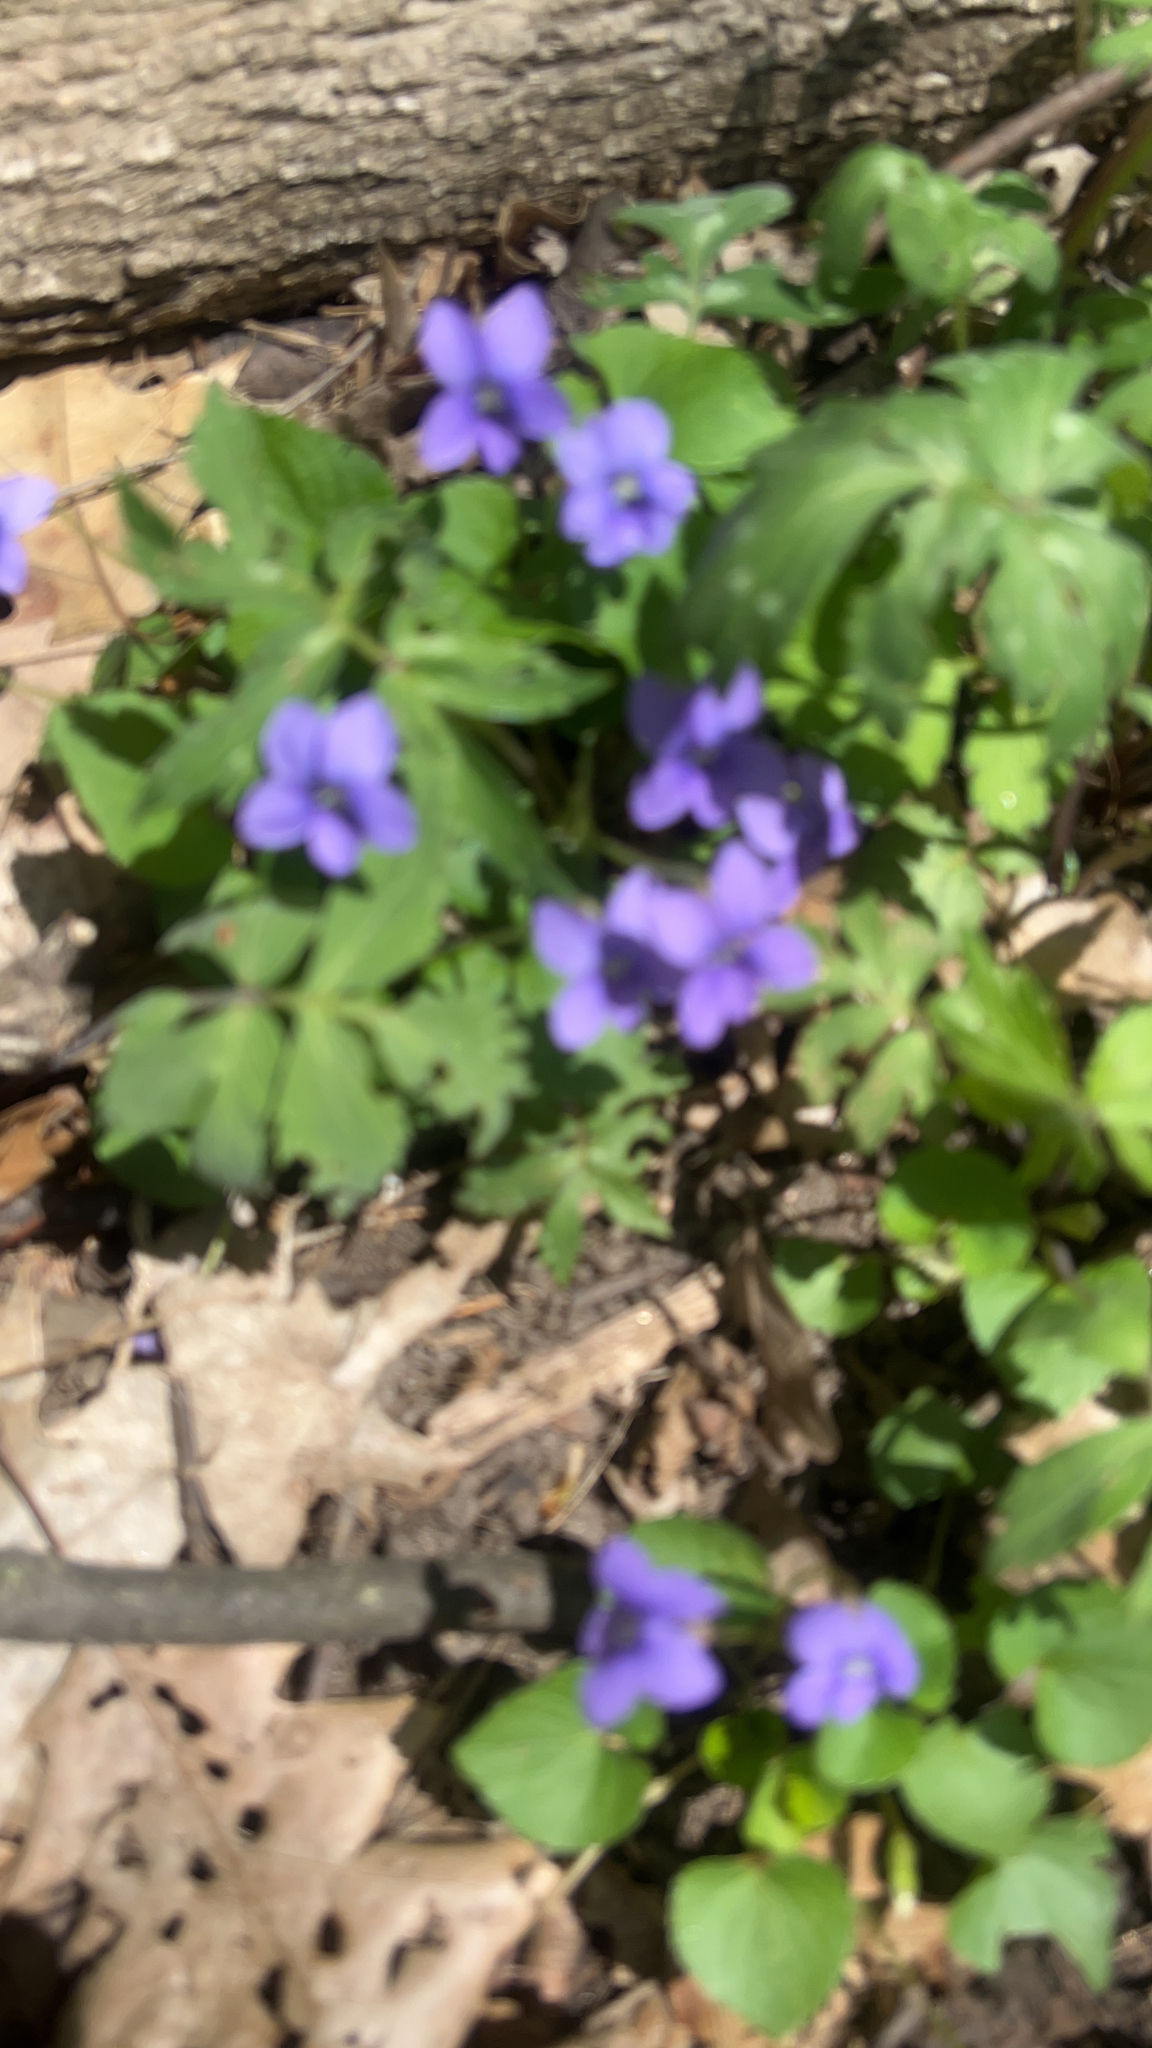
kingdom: Plantae
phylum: Tracheophyta
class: Magnoliopsida
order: Malpighiales
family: Violaceae
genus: Viola
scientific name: Viola palmata
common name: Early blue violet
